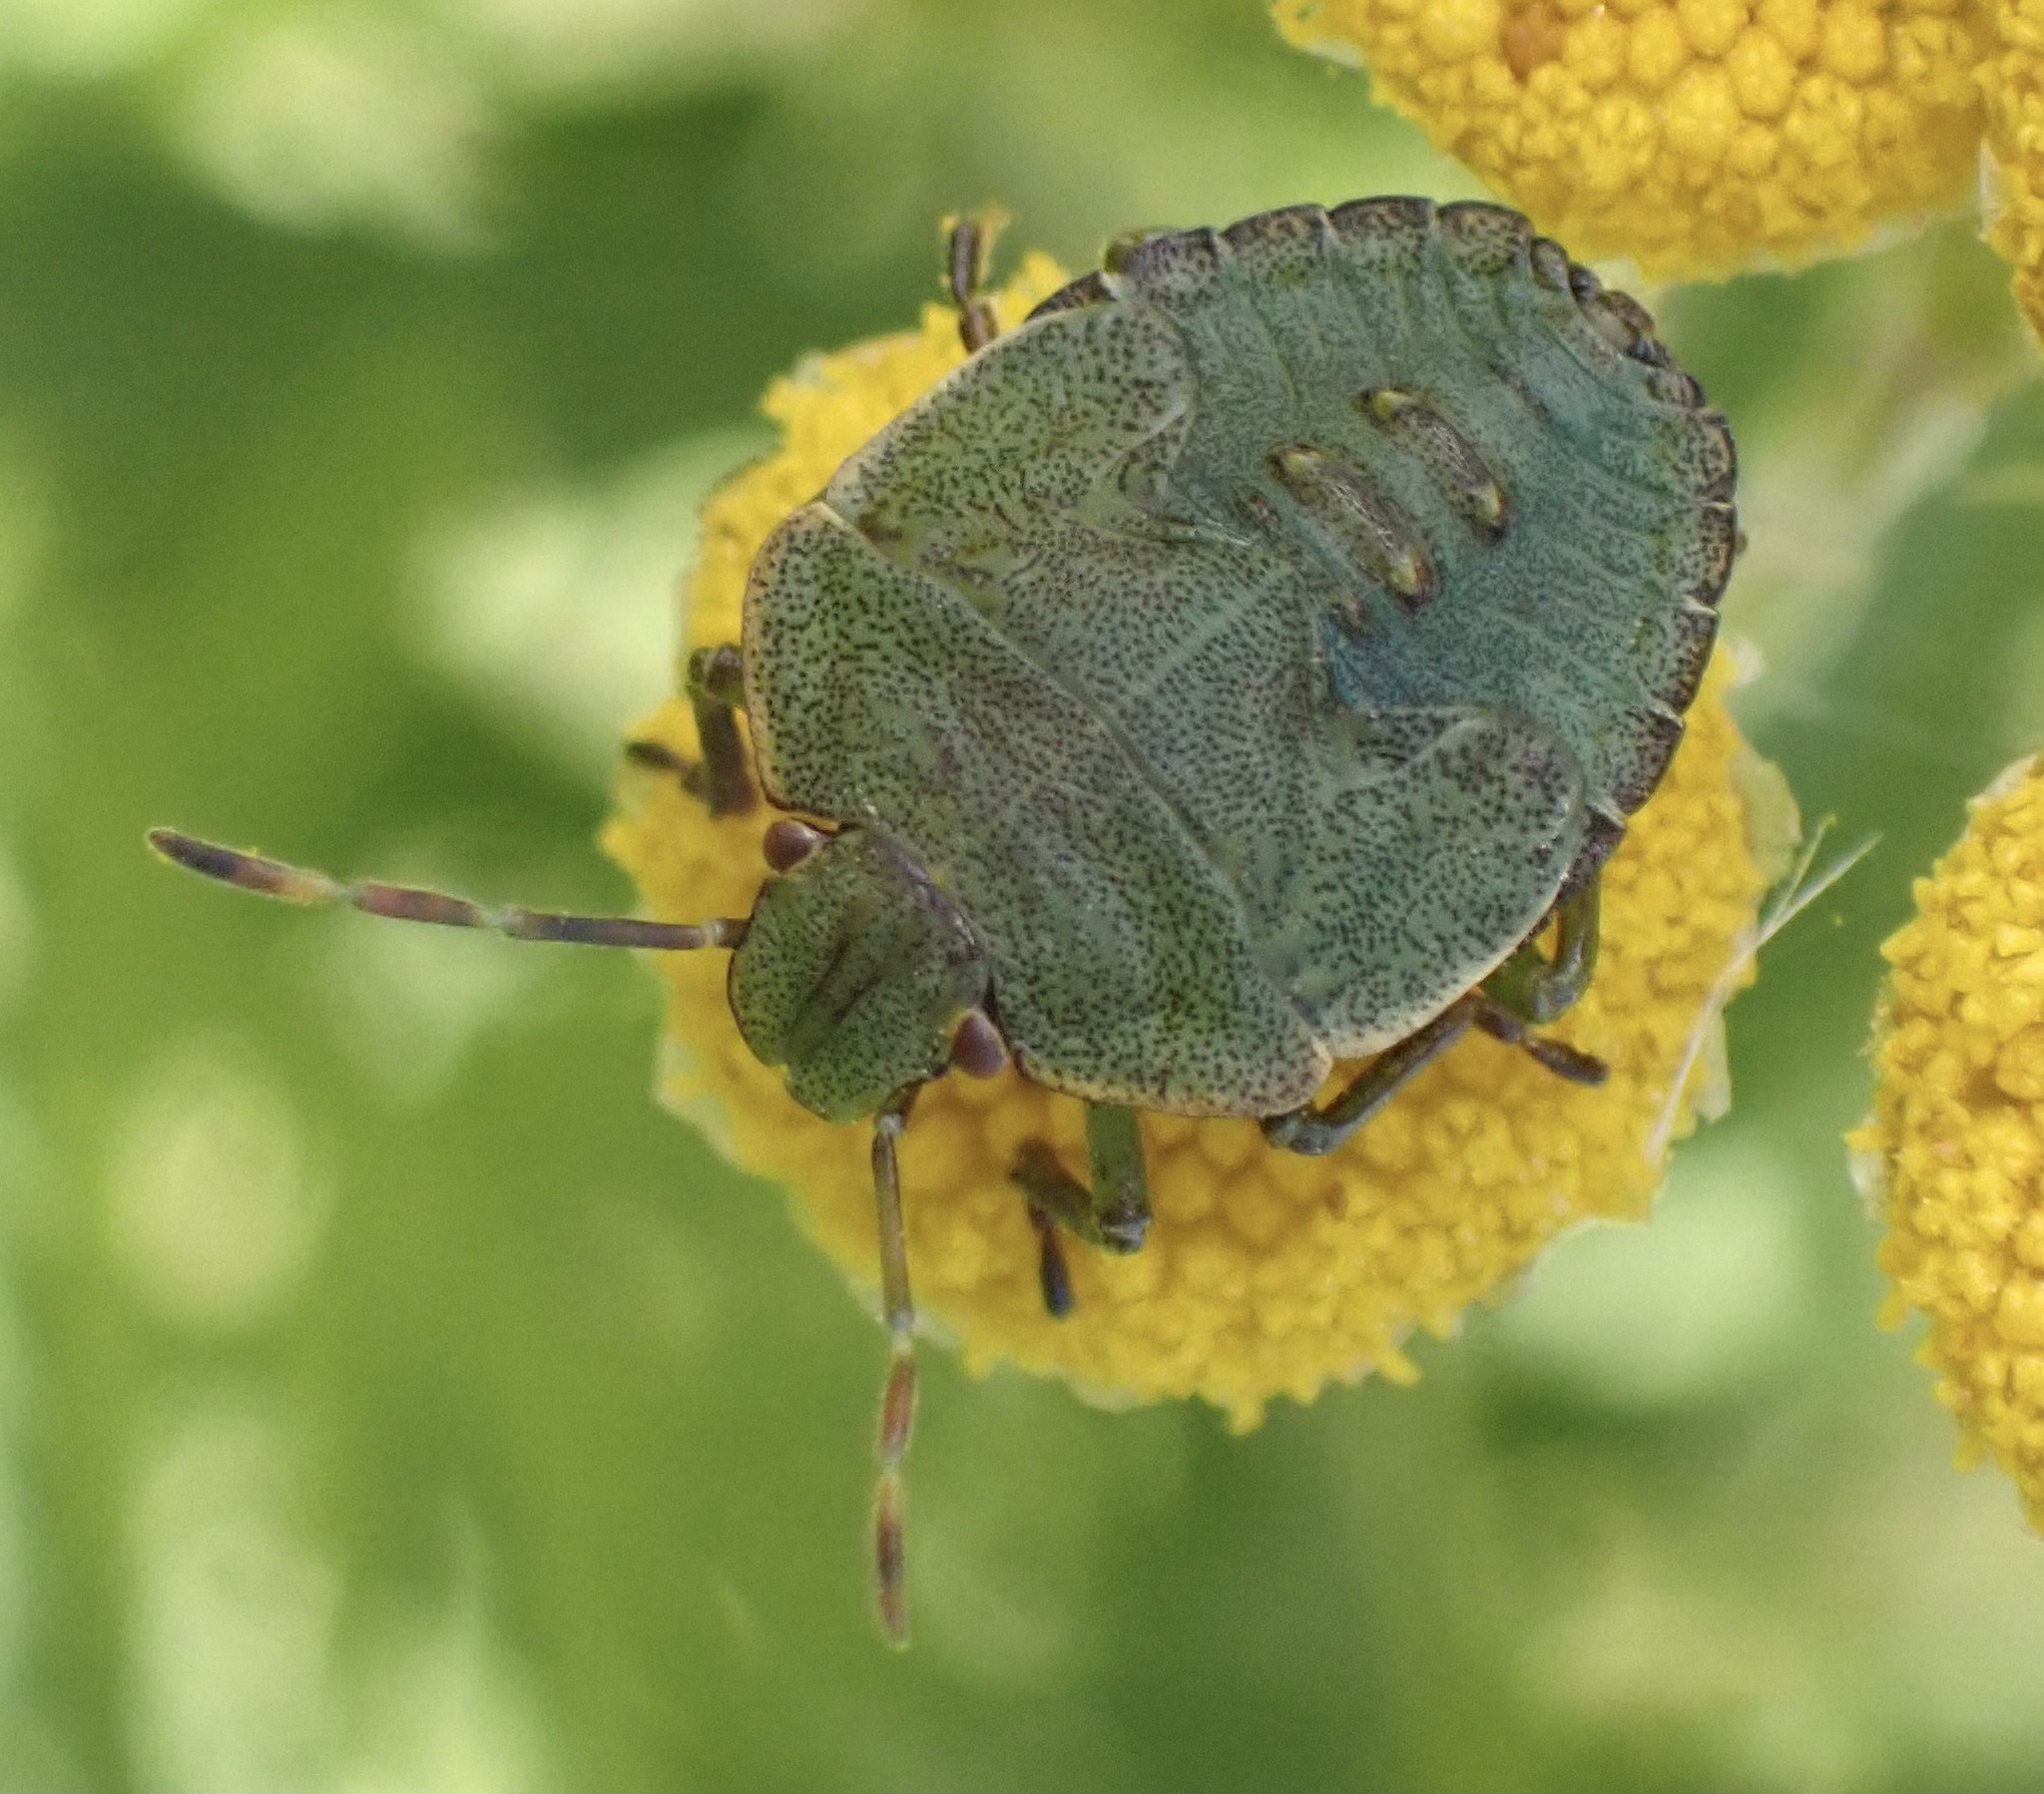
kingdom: Animalia
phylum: Arthropoda
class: Insecta
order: Hemiptera
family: Pentatomidae
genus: Palomena
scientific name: Palomena prasina
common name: Green shieldbug
